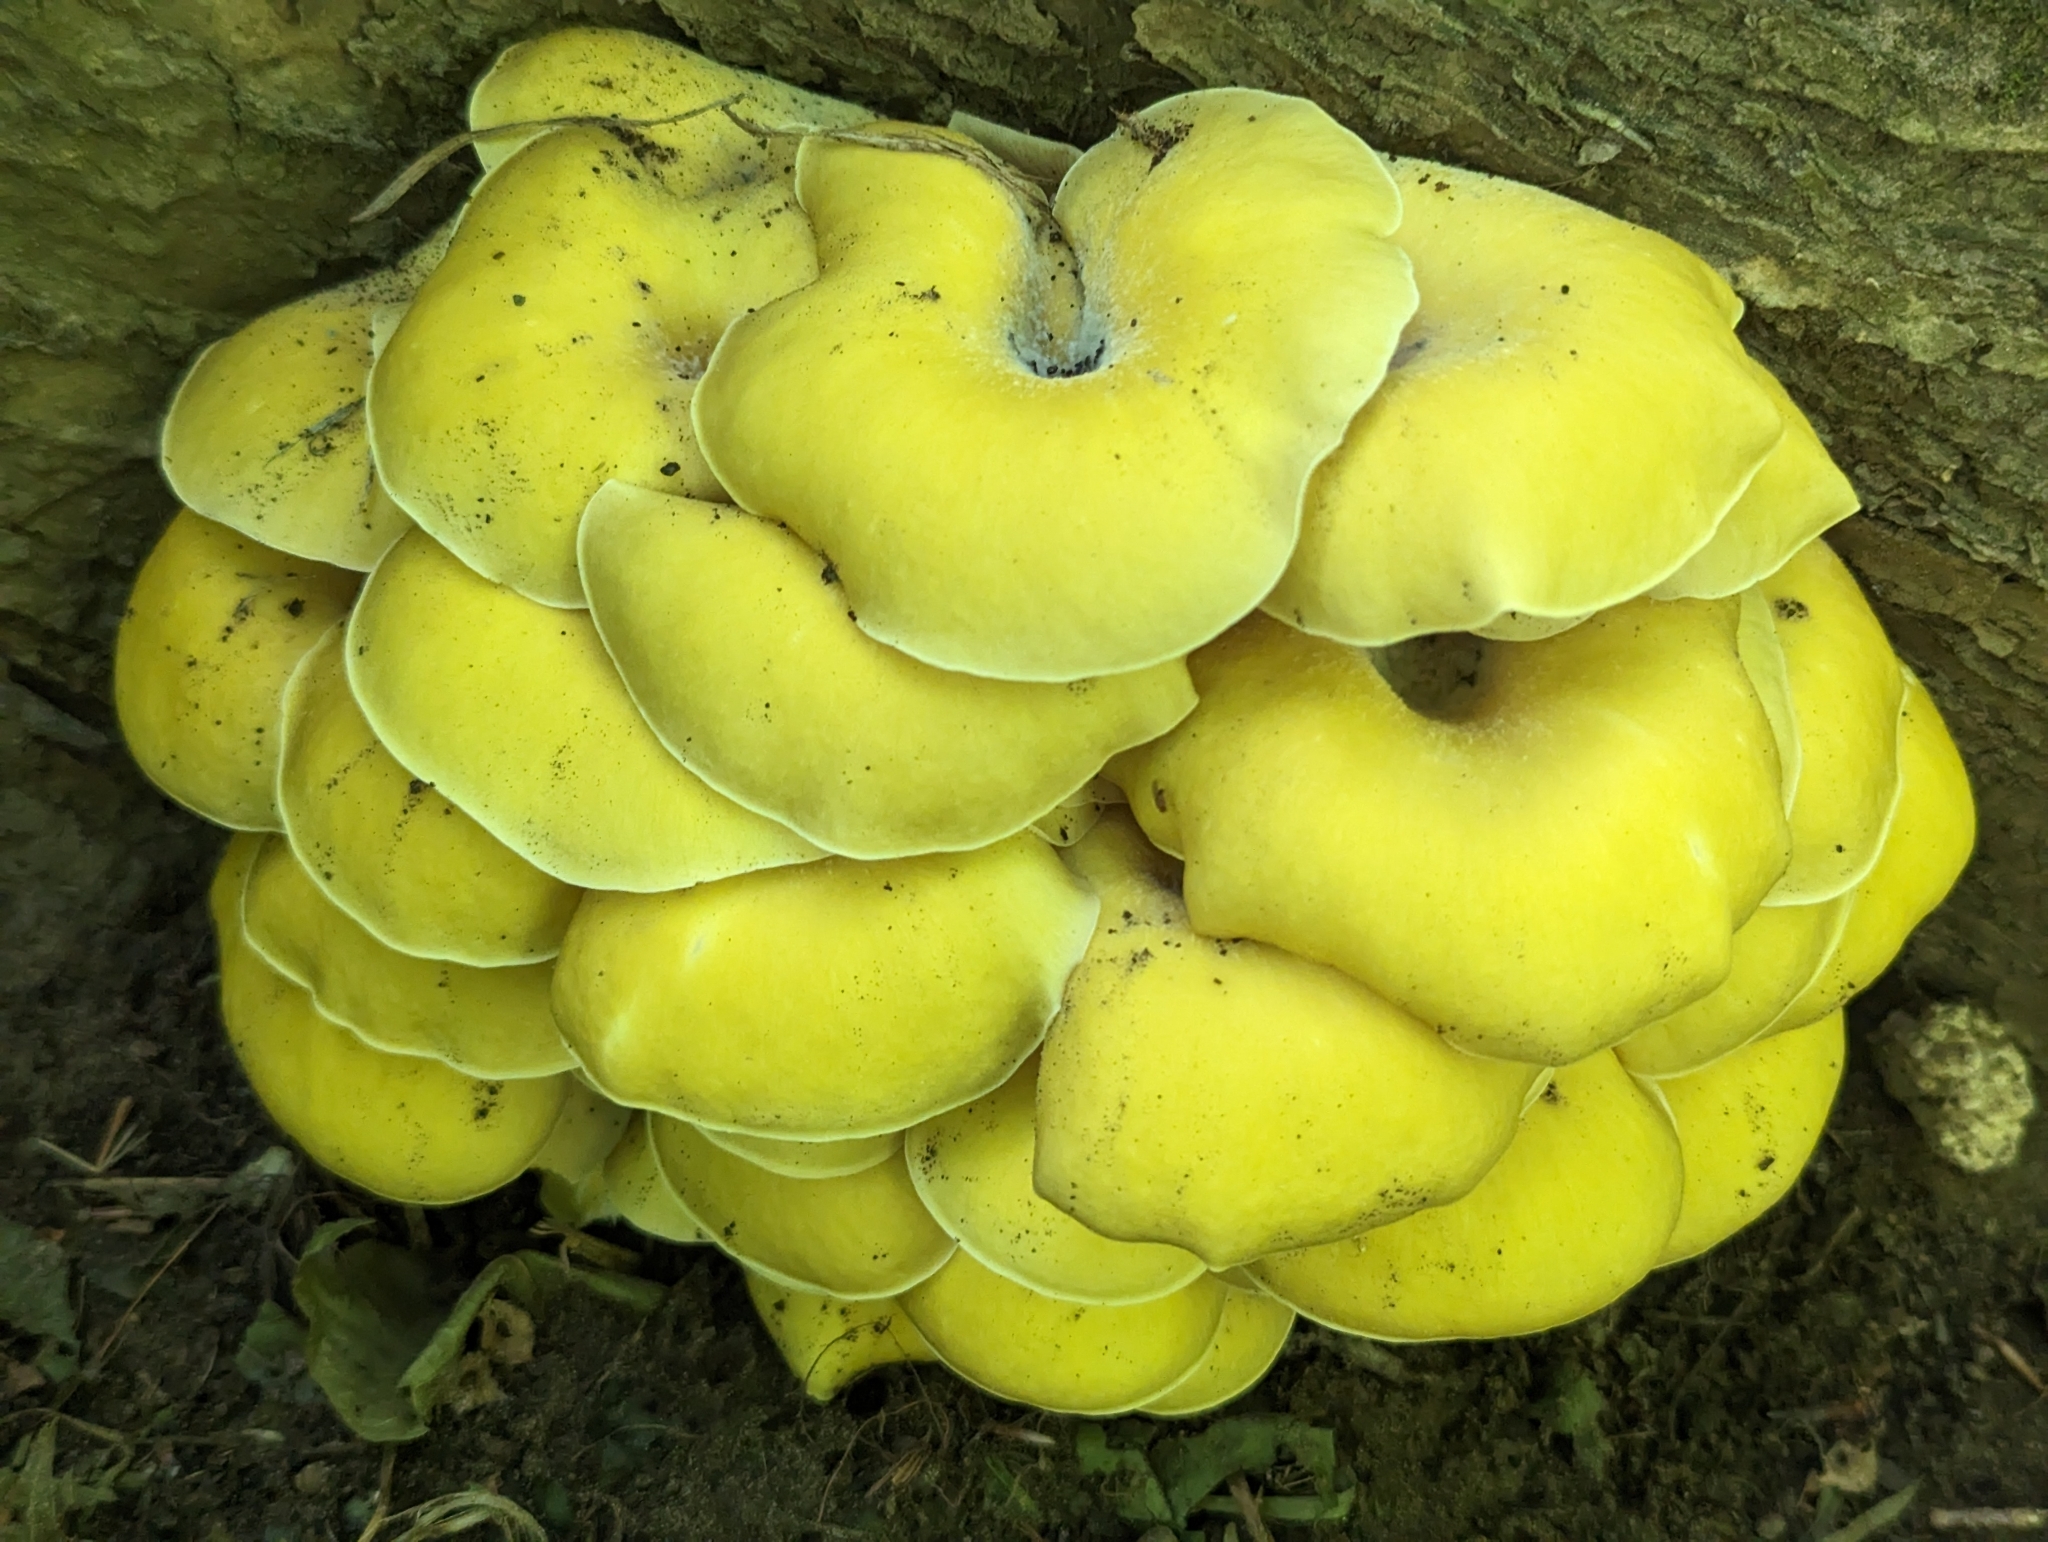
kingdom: Fungi
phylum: Basidiomycota
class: Agaricomycetes
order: Agaricales
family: Pleurotaceae
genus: Pleurotus
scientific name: Pleurotus citrinopileatus
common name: Golden oyster mushroom
